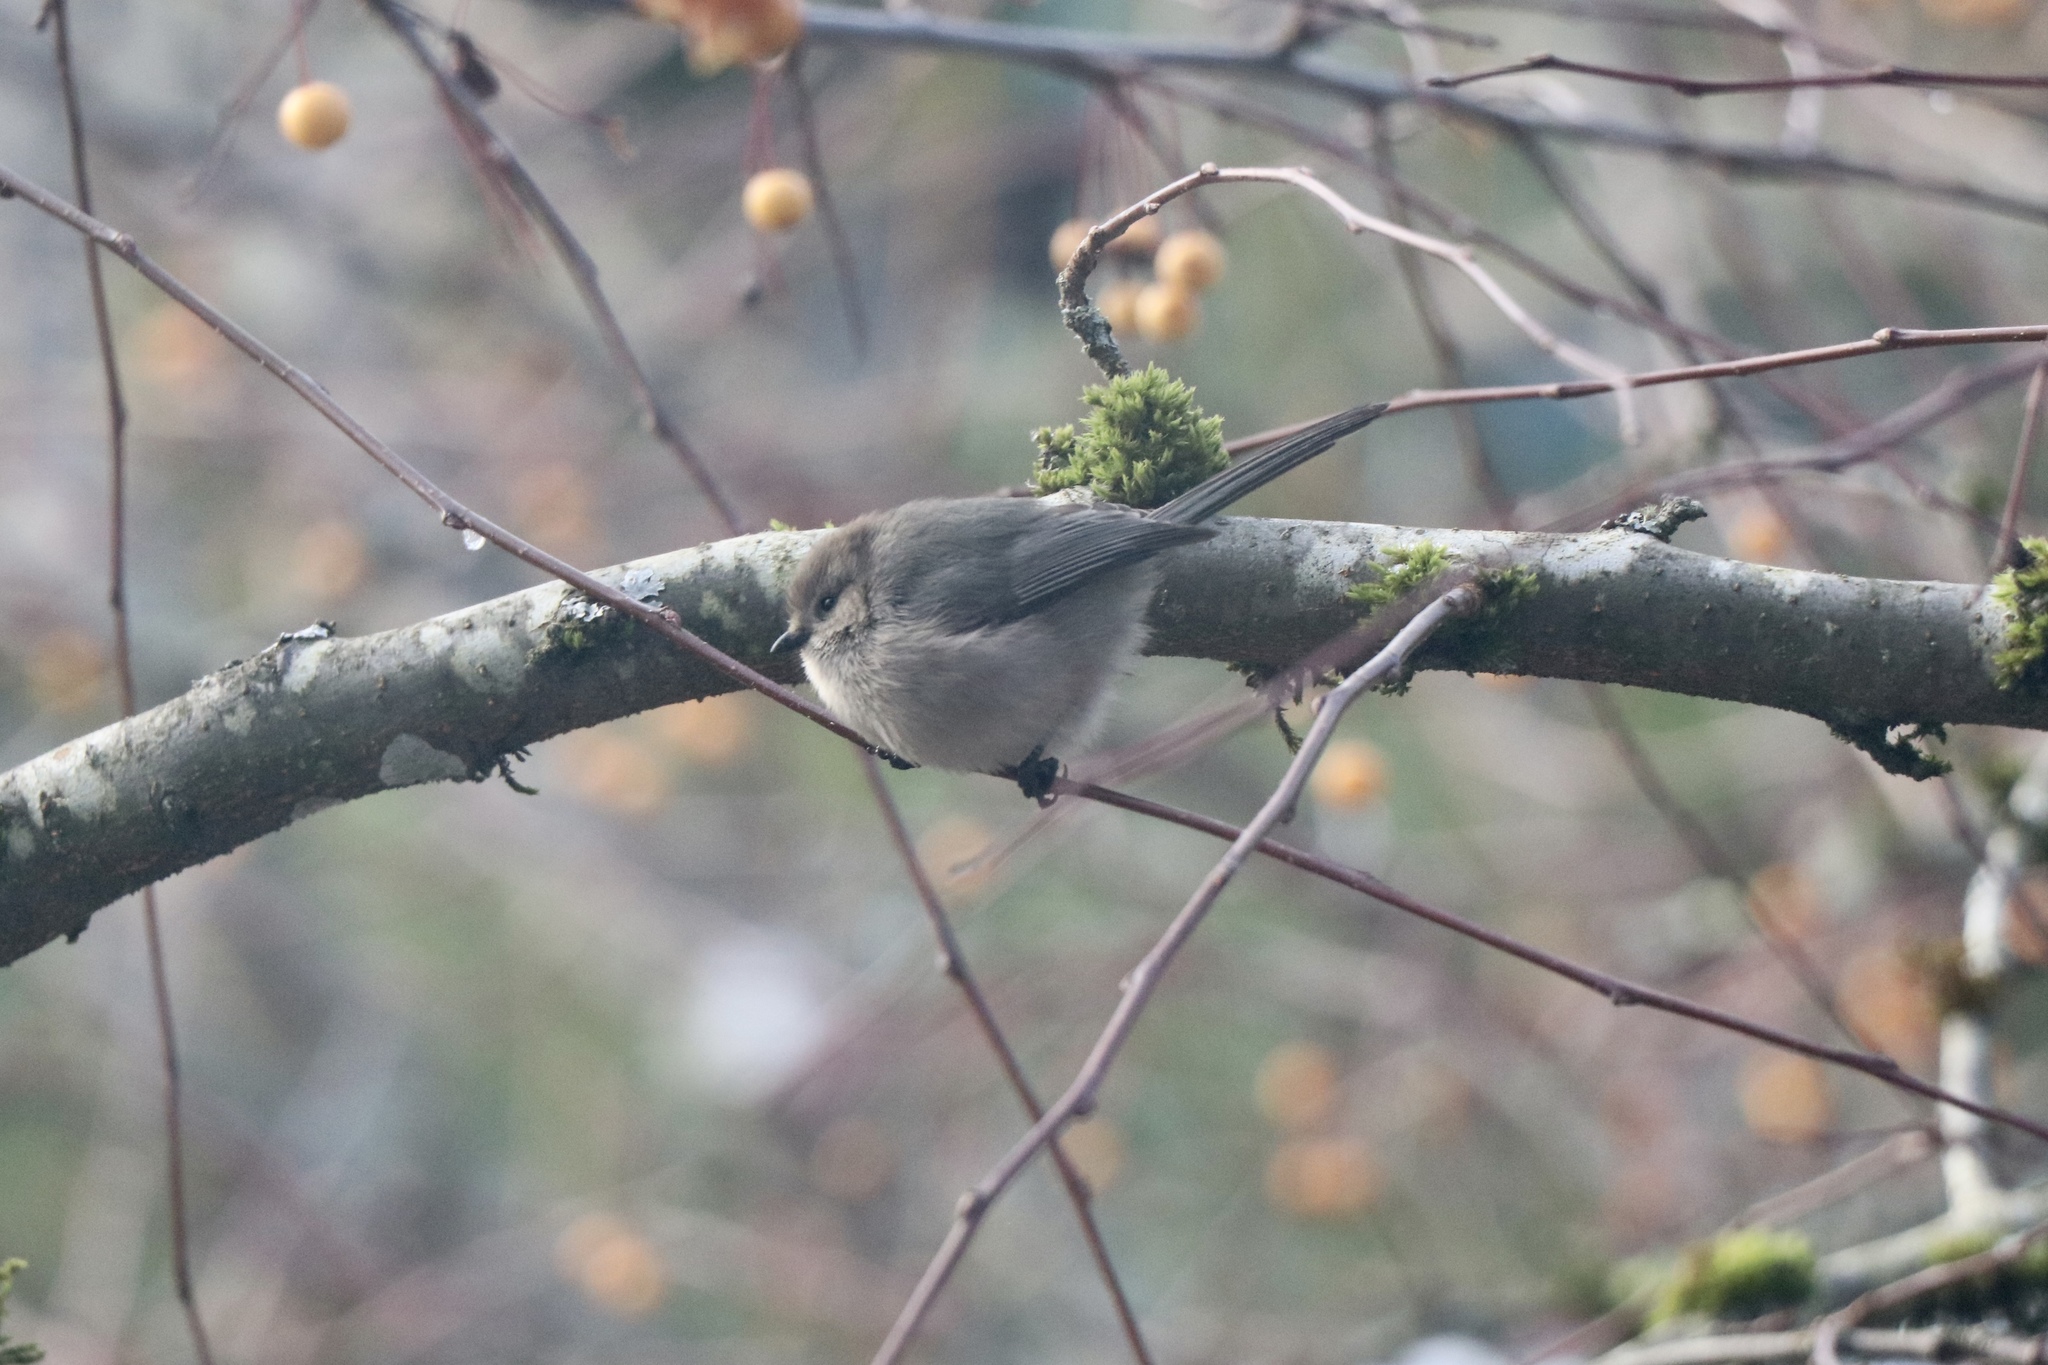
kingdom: Animalia
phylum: Chordata
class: Aves
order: Passeriformes
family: Aegithalidae
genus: Psaltriparus
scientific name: Psaltriparus minimus
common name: American bushtit
